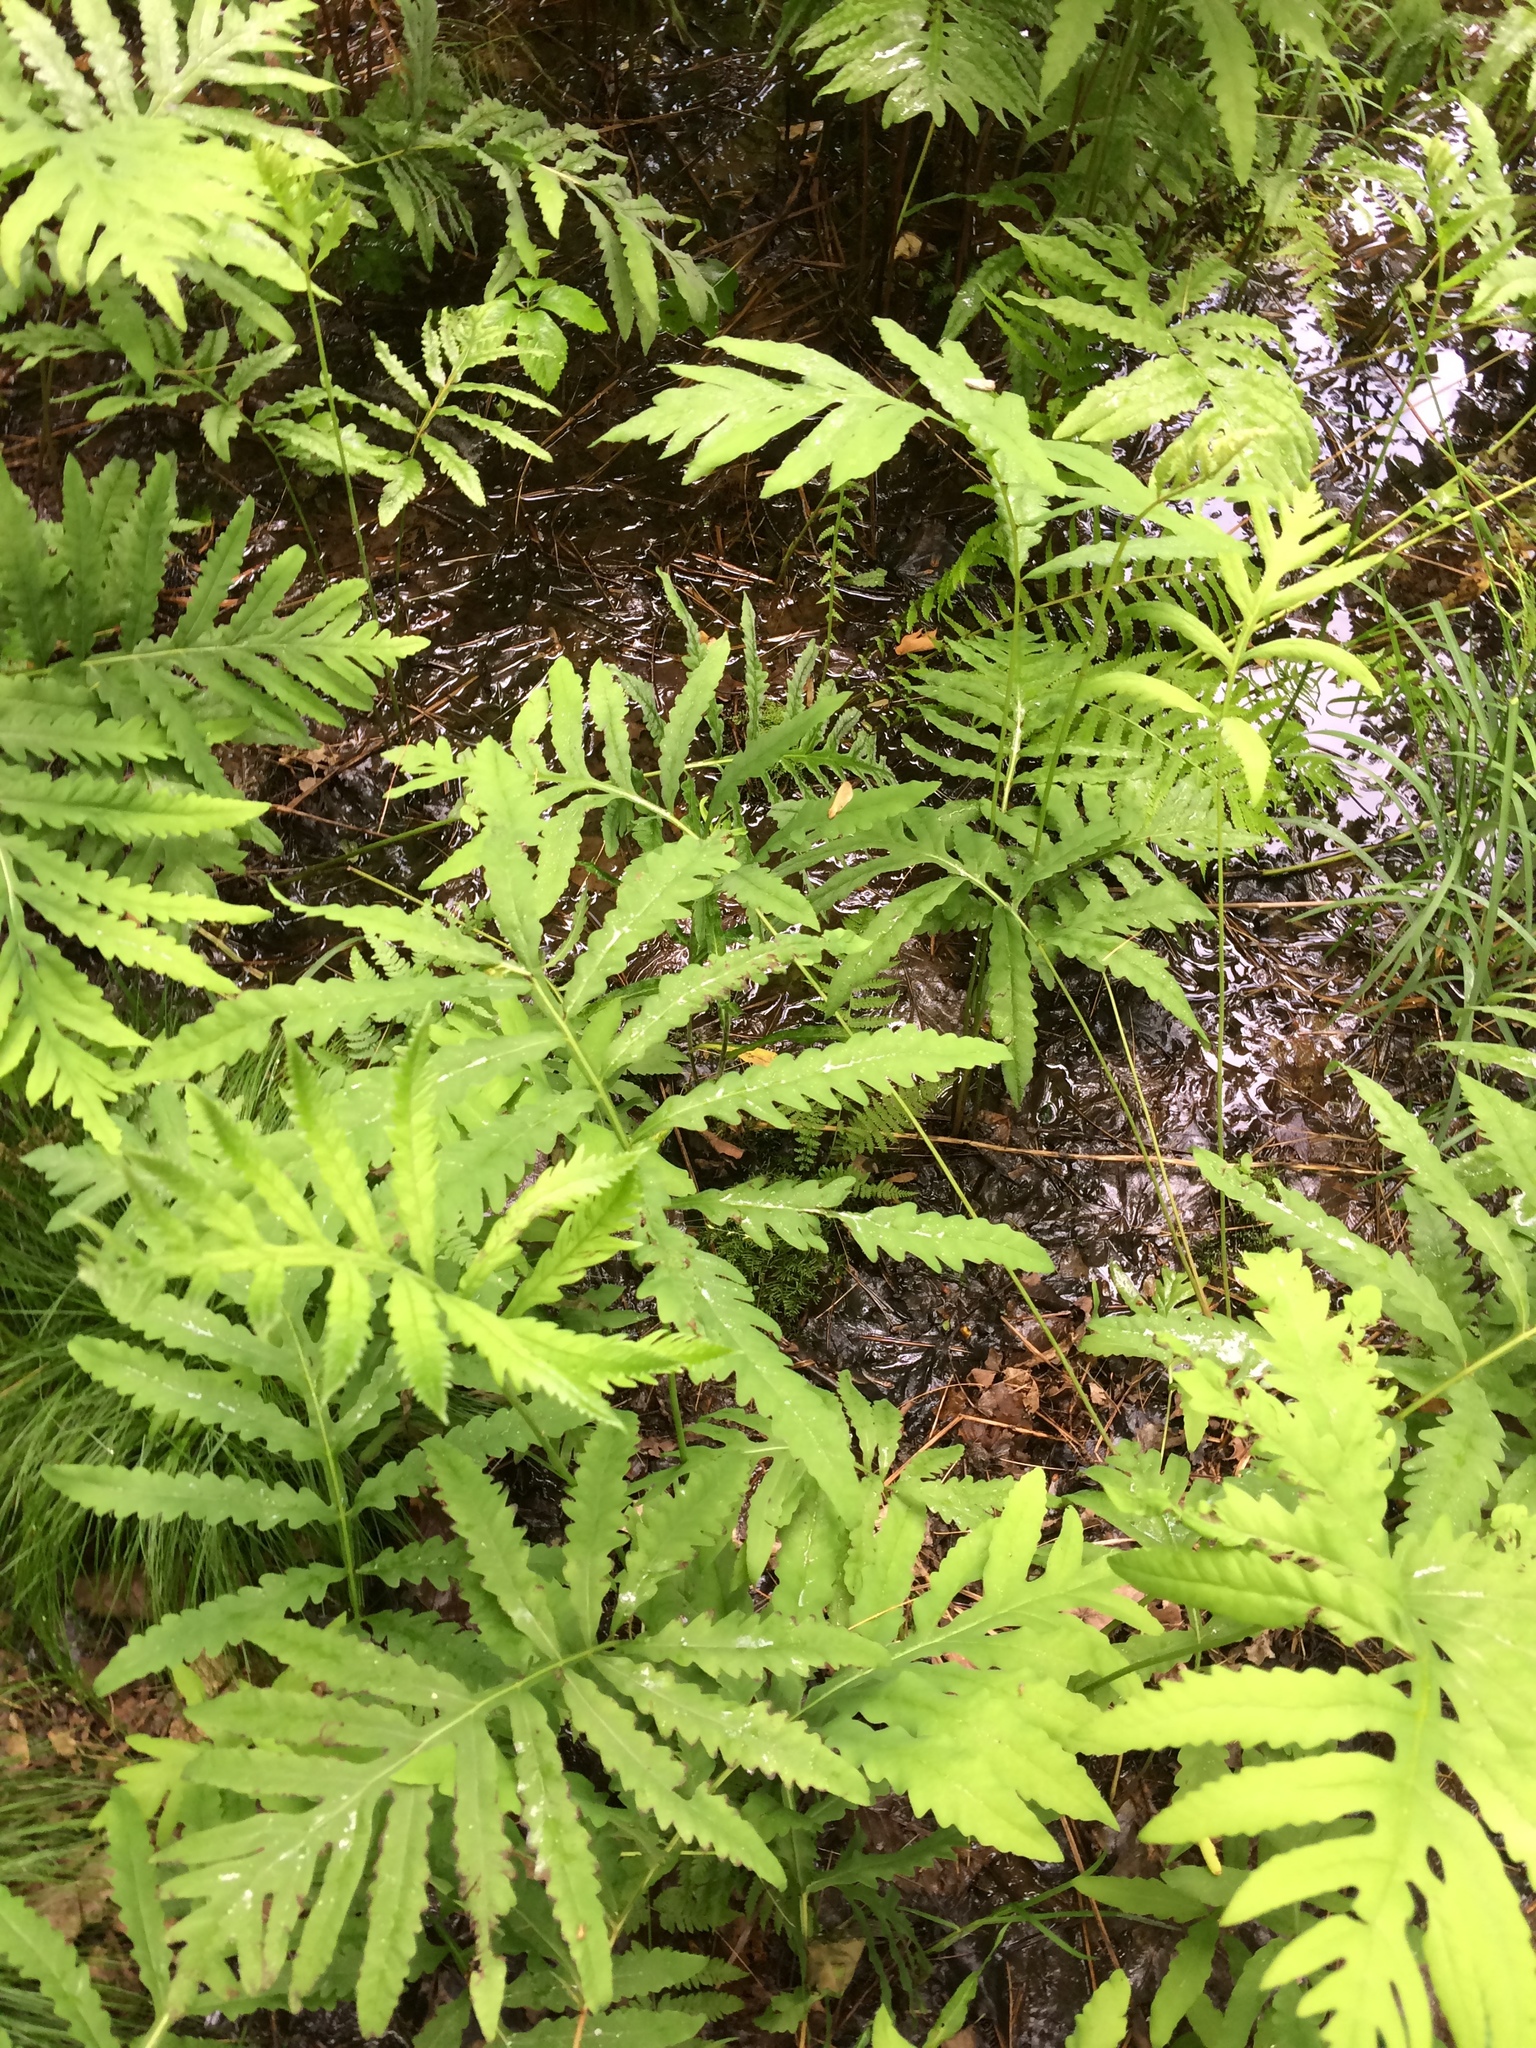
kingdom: Plantae
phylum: Tracheophyta
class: Polypodiopsida
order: Polypodiales
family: Onocleaceae
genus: Onoclea
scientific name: Onoclea sensibilis
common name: Sensitive fern
